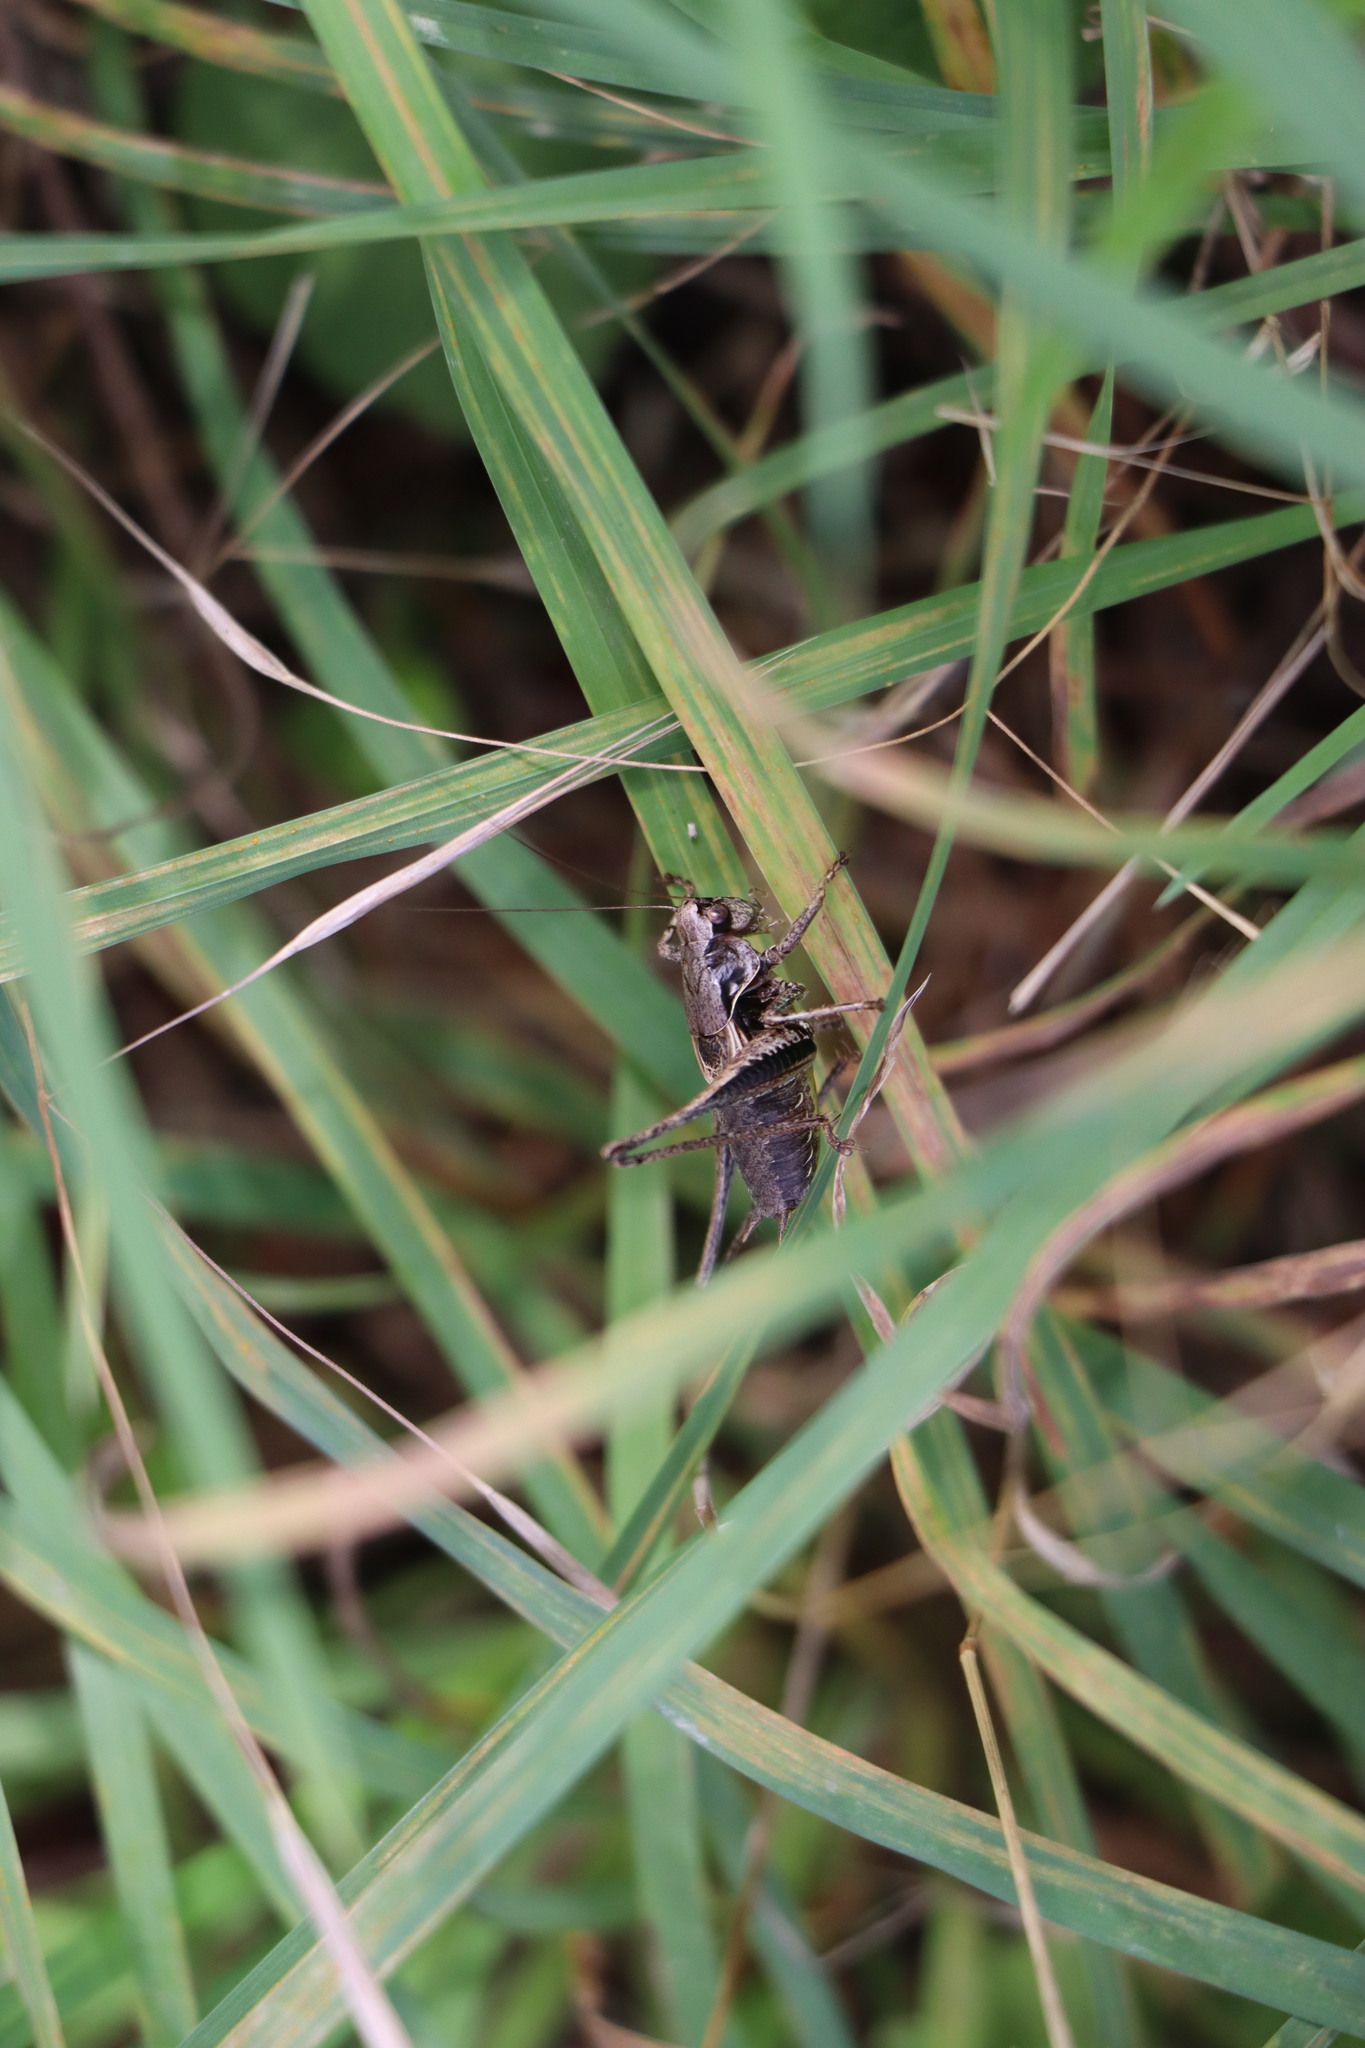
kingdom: Animalia
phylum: Arthropoda
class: Insecta
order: Orthoptera
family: Tettigoniidae
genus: Pholidoptera
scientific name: Pholidoptera griseoaptera
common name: Dark bush-cricket
